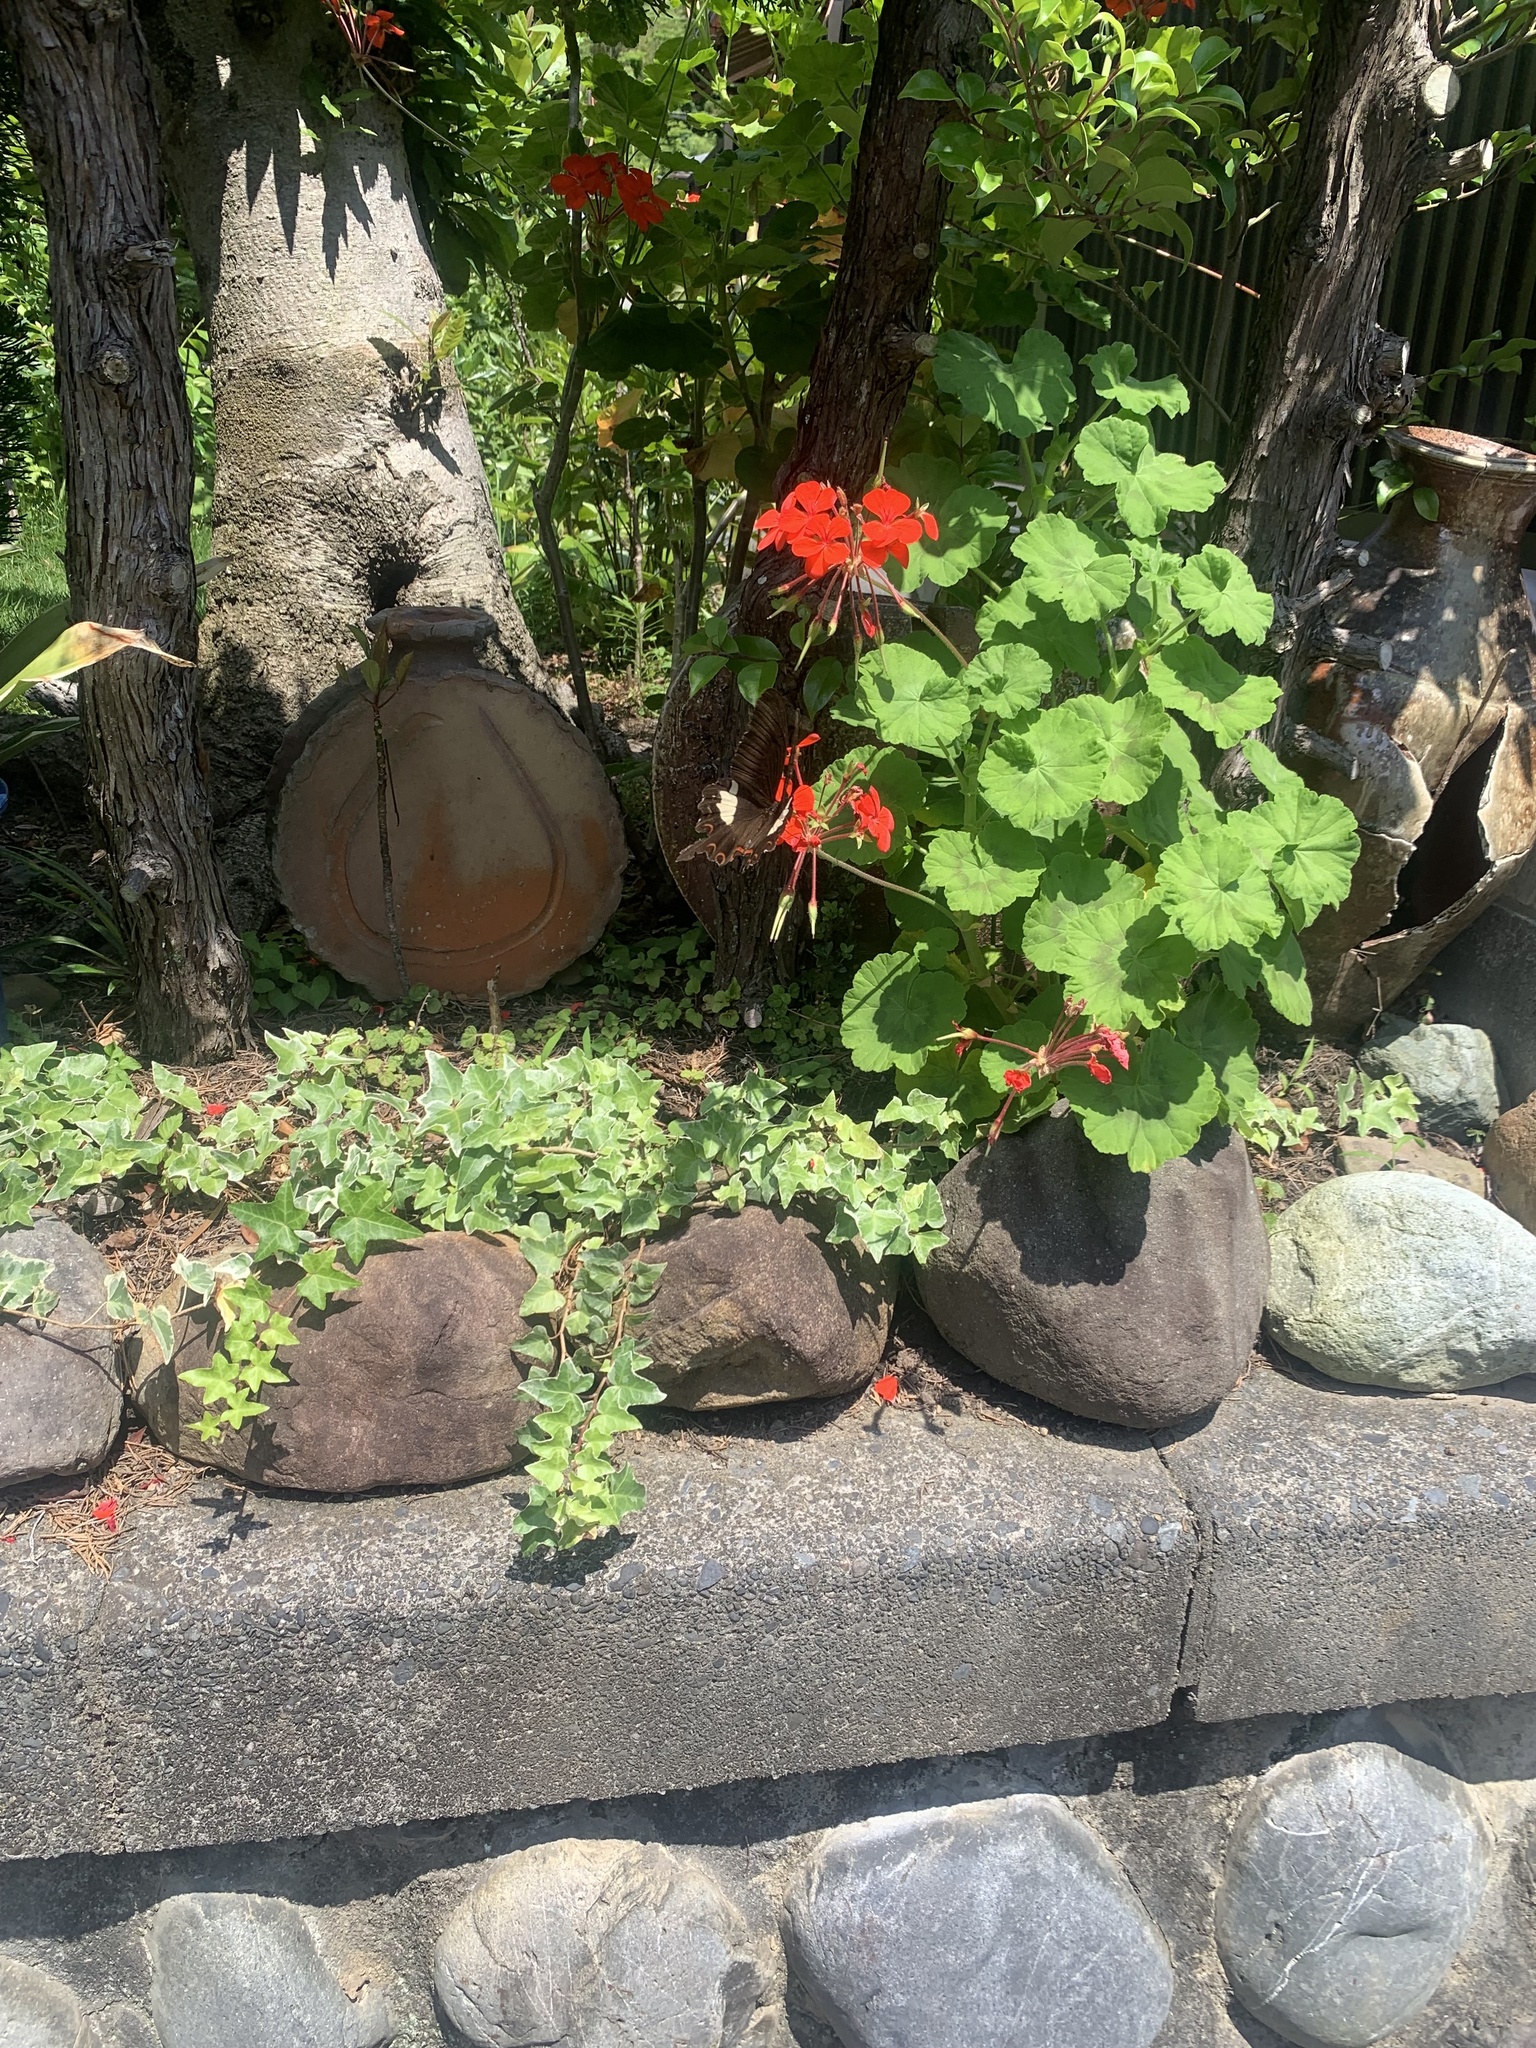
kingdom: Animalia
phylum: Arthropoda
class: Insecta
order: Lepidoptera
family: Papilionidae
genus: Papilio
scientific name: Papilio helenus
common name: Red helen
